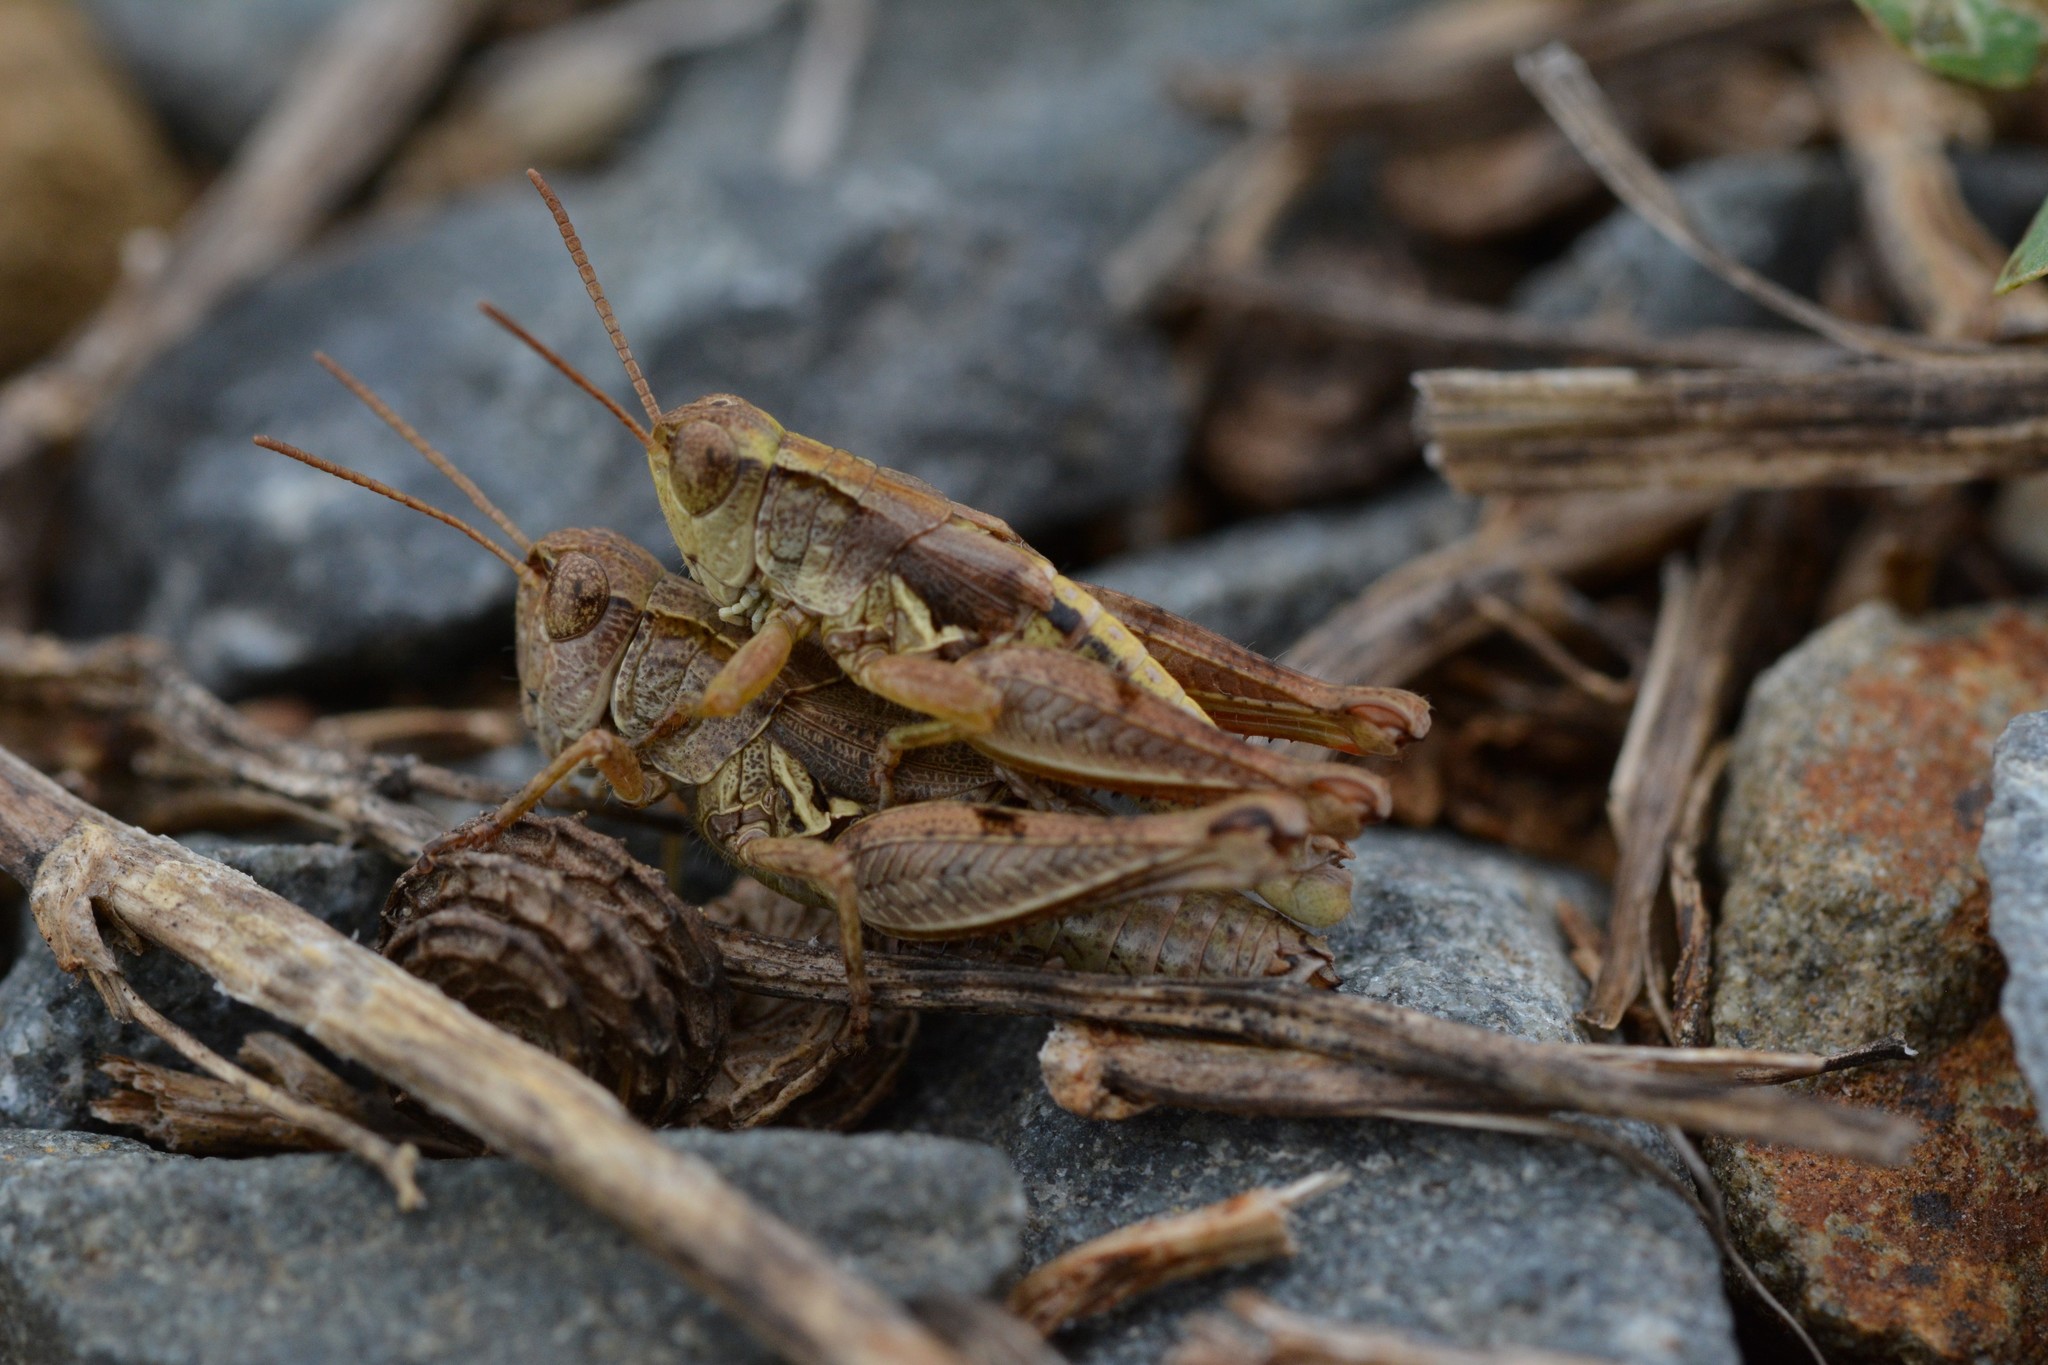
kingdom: Animalia
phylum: Arthropoda
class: Insecta
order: Orthoptera
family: Acrididae
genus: Phaulacridium
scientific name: Phaulacridium marginale
